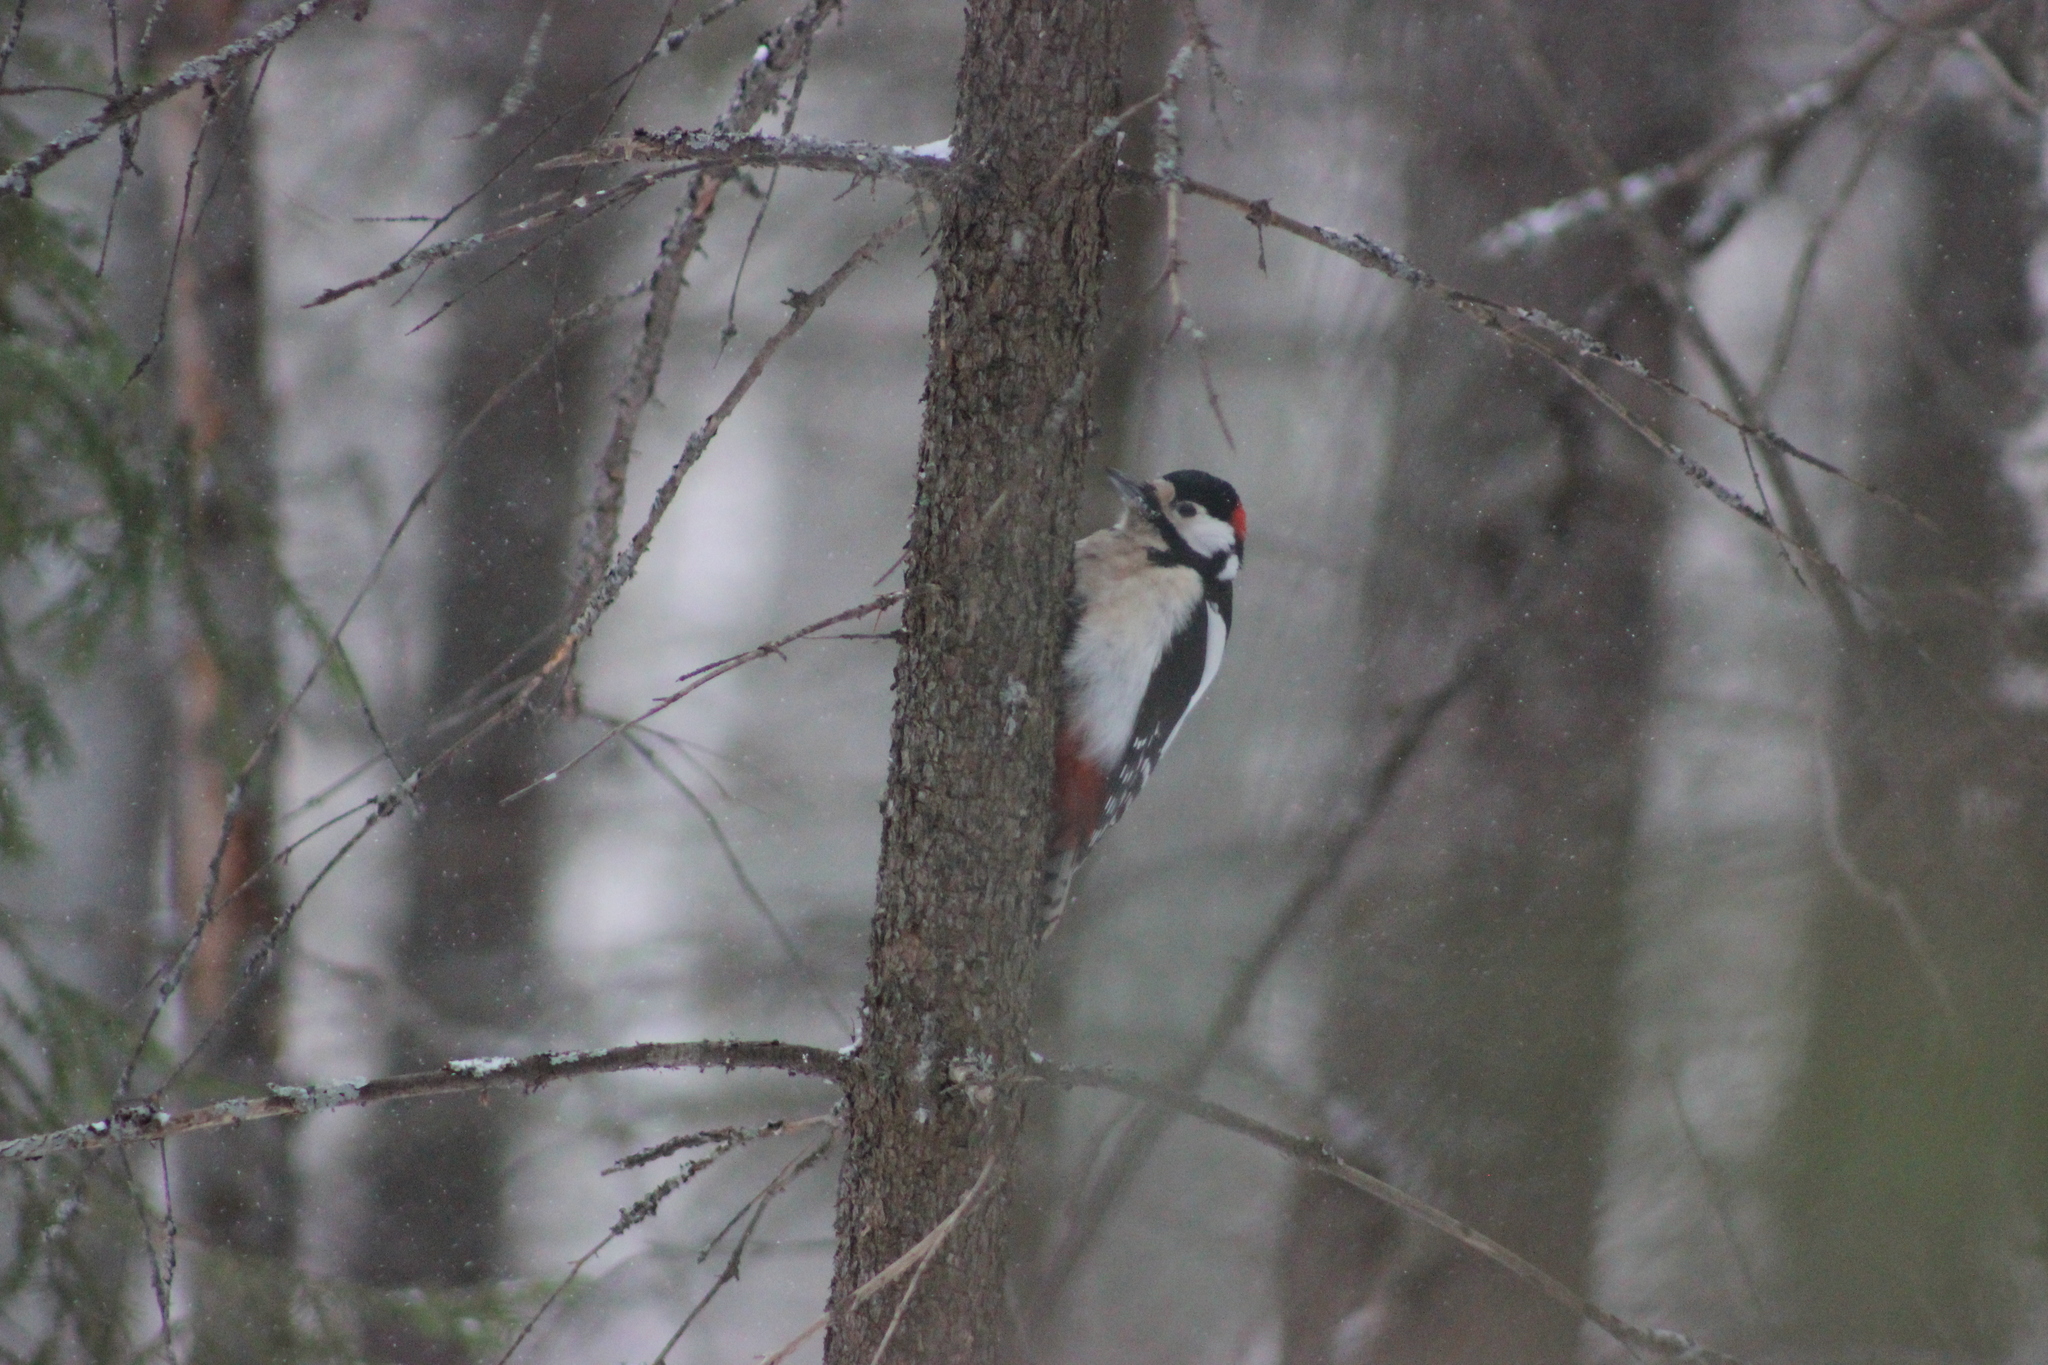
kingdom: Animalia
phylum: Chordata
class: Aves
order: Piciformes
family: Picidae
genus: Dendrocopos
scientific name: Dendrocopos major
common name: Great spotted woodpecker
